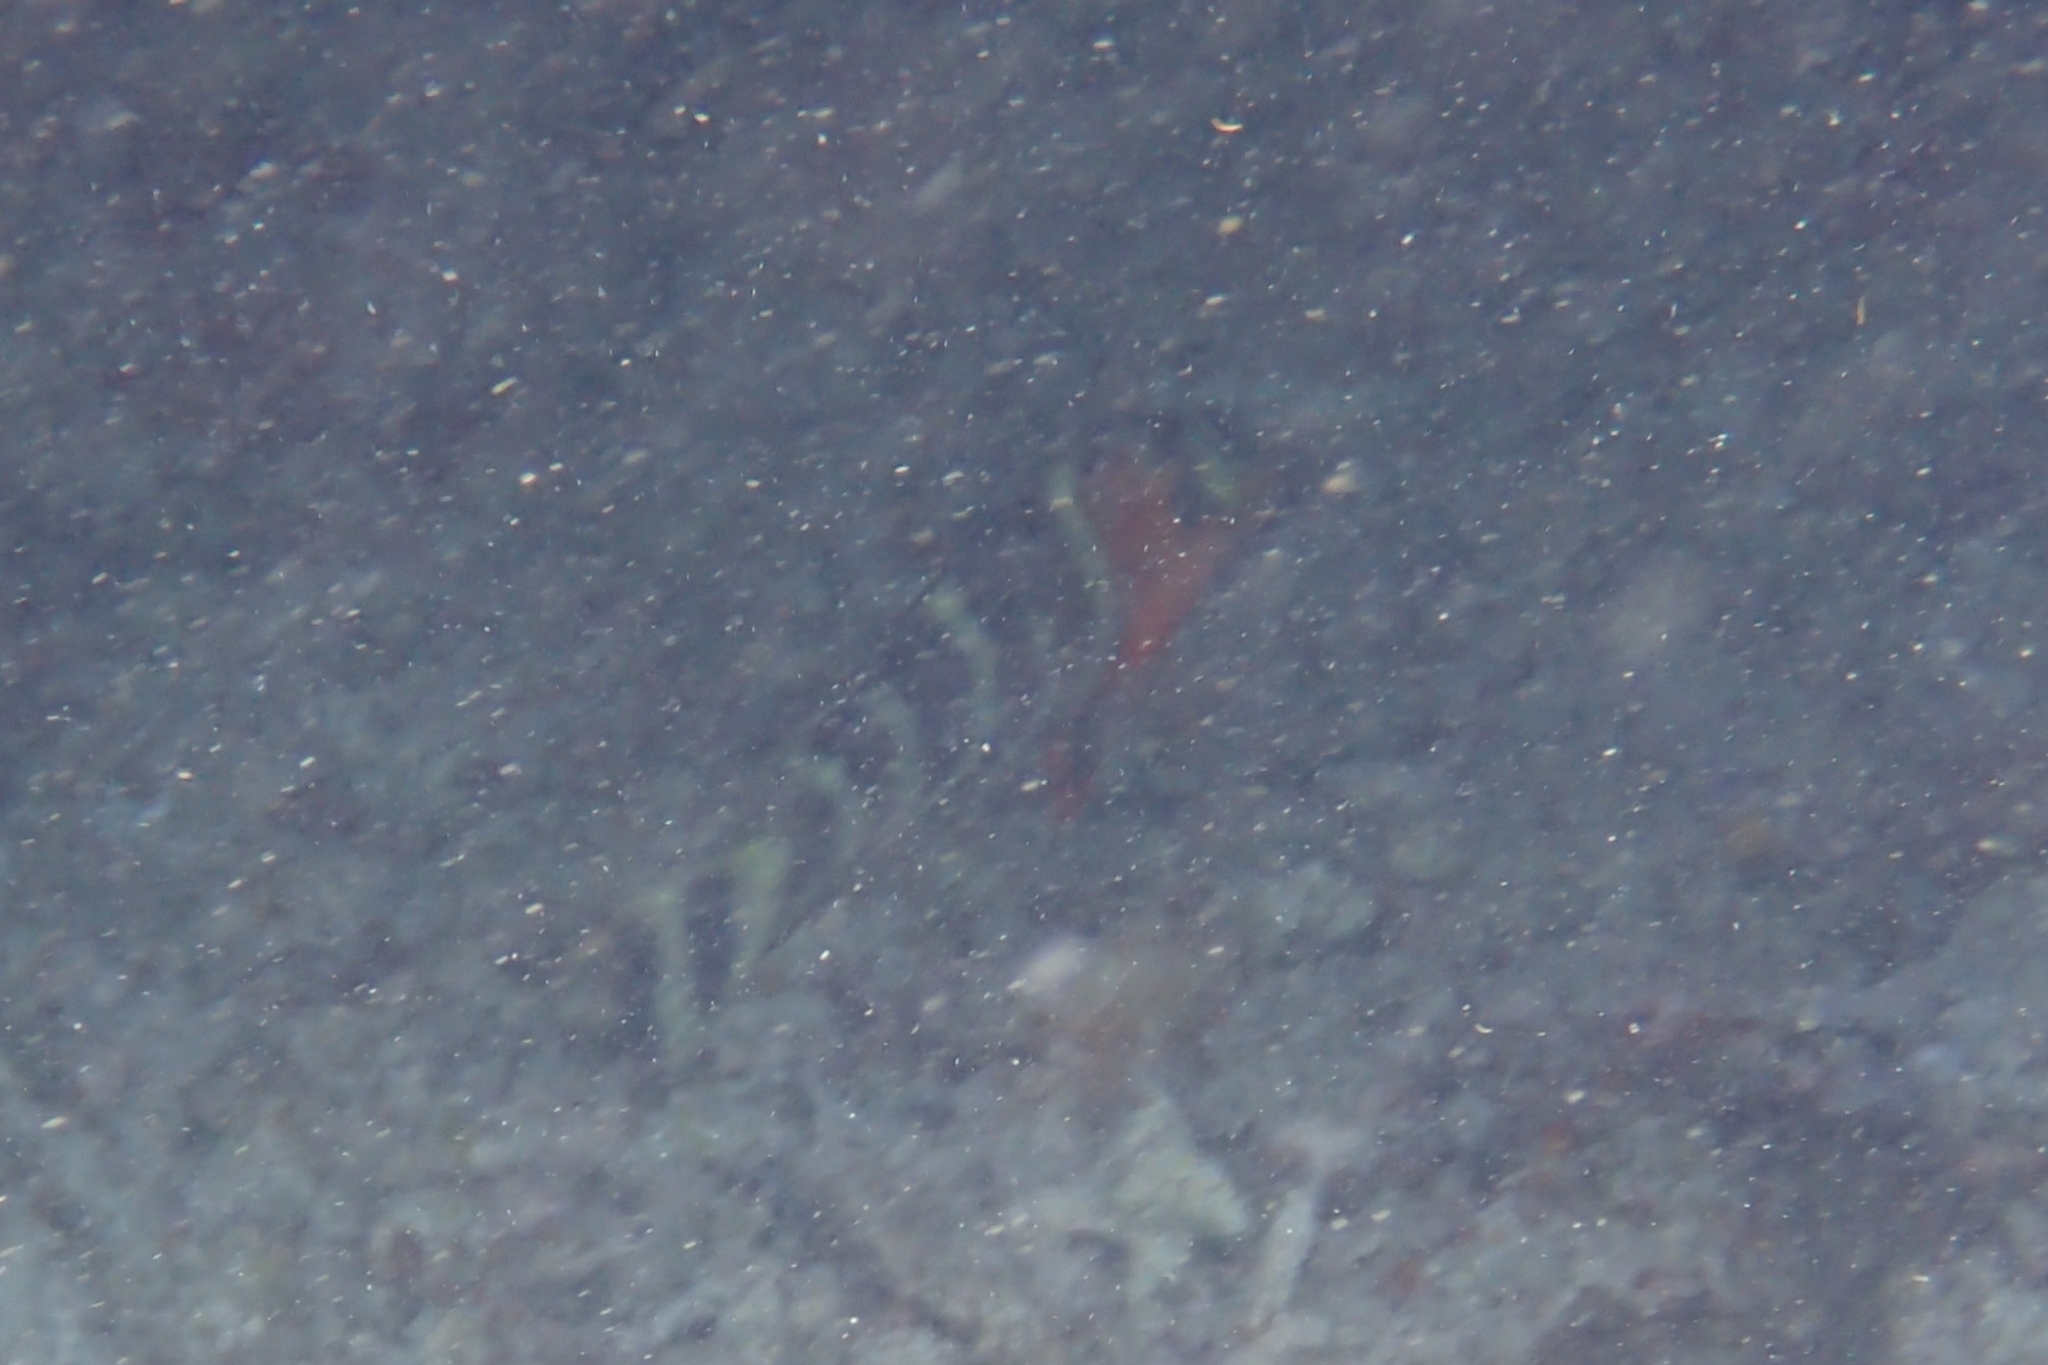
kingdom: Animalia
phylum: Chordata
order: Perciformes
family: Labridae
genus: Cheilinus
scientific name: Cheilinus fasciatus
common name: Red-breasted wrasse
